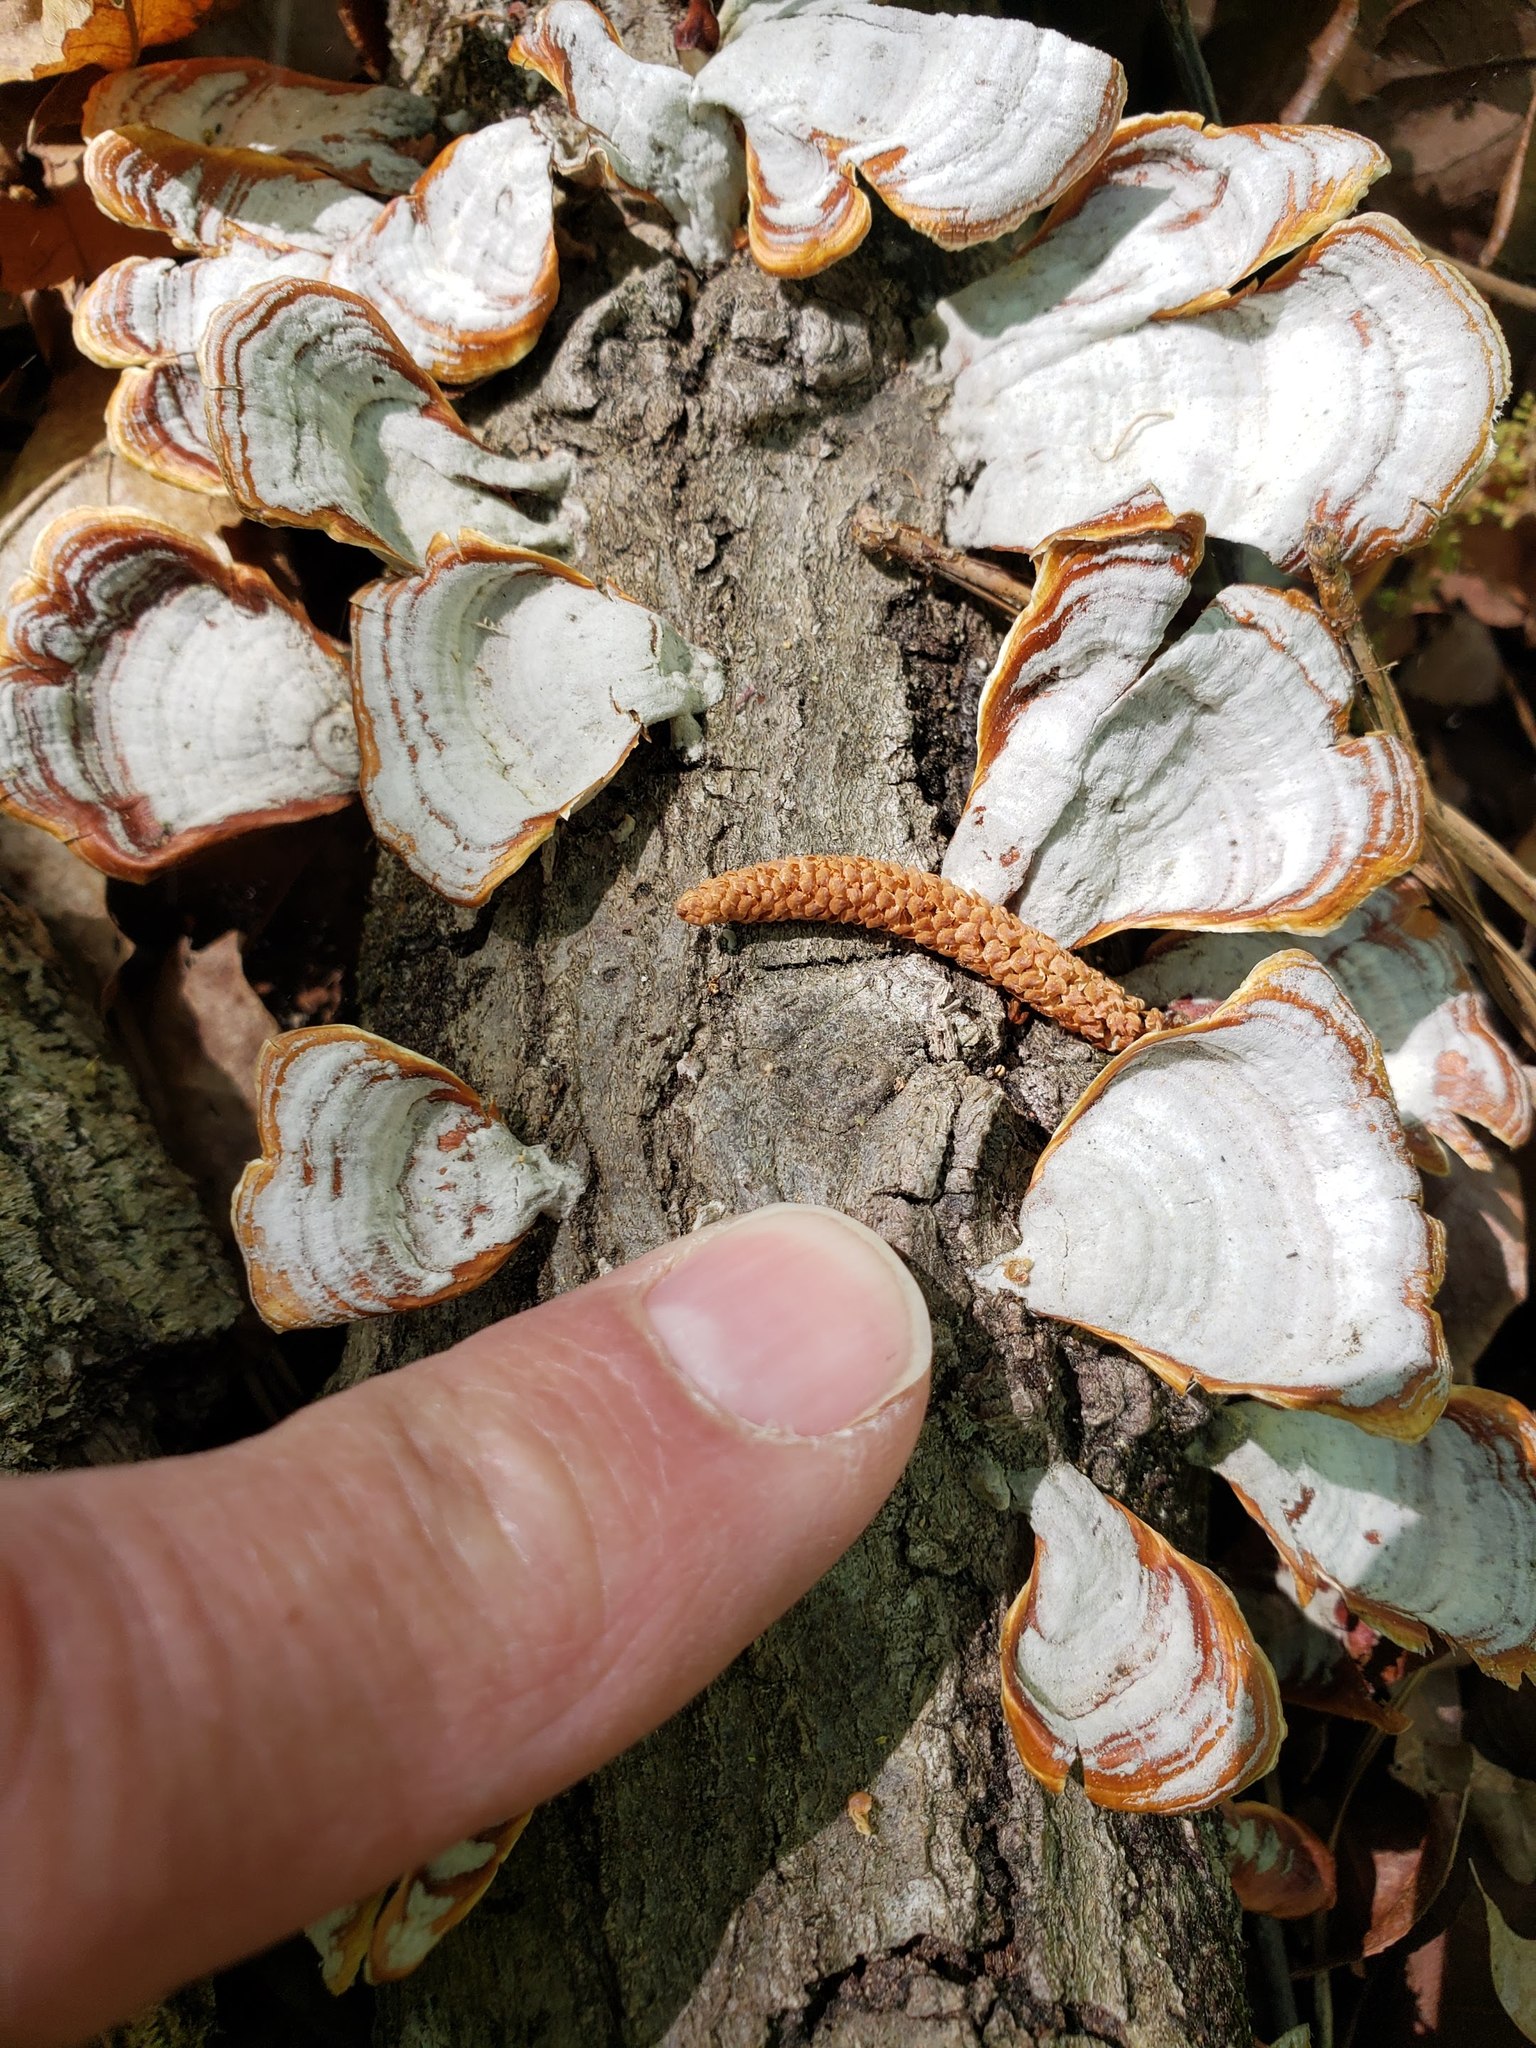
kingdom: Fungi
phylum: Basidiomycota
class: Agaricomycetes
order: Russulales
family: Stereaceae
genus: Stereum
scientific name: Stereum lobatum
